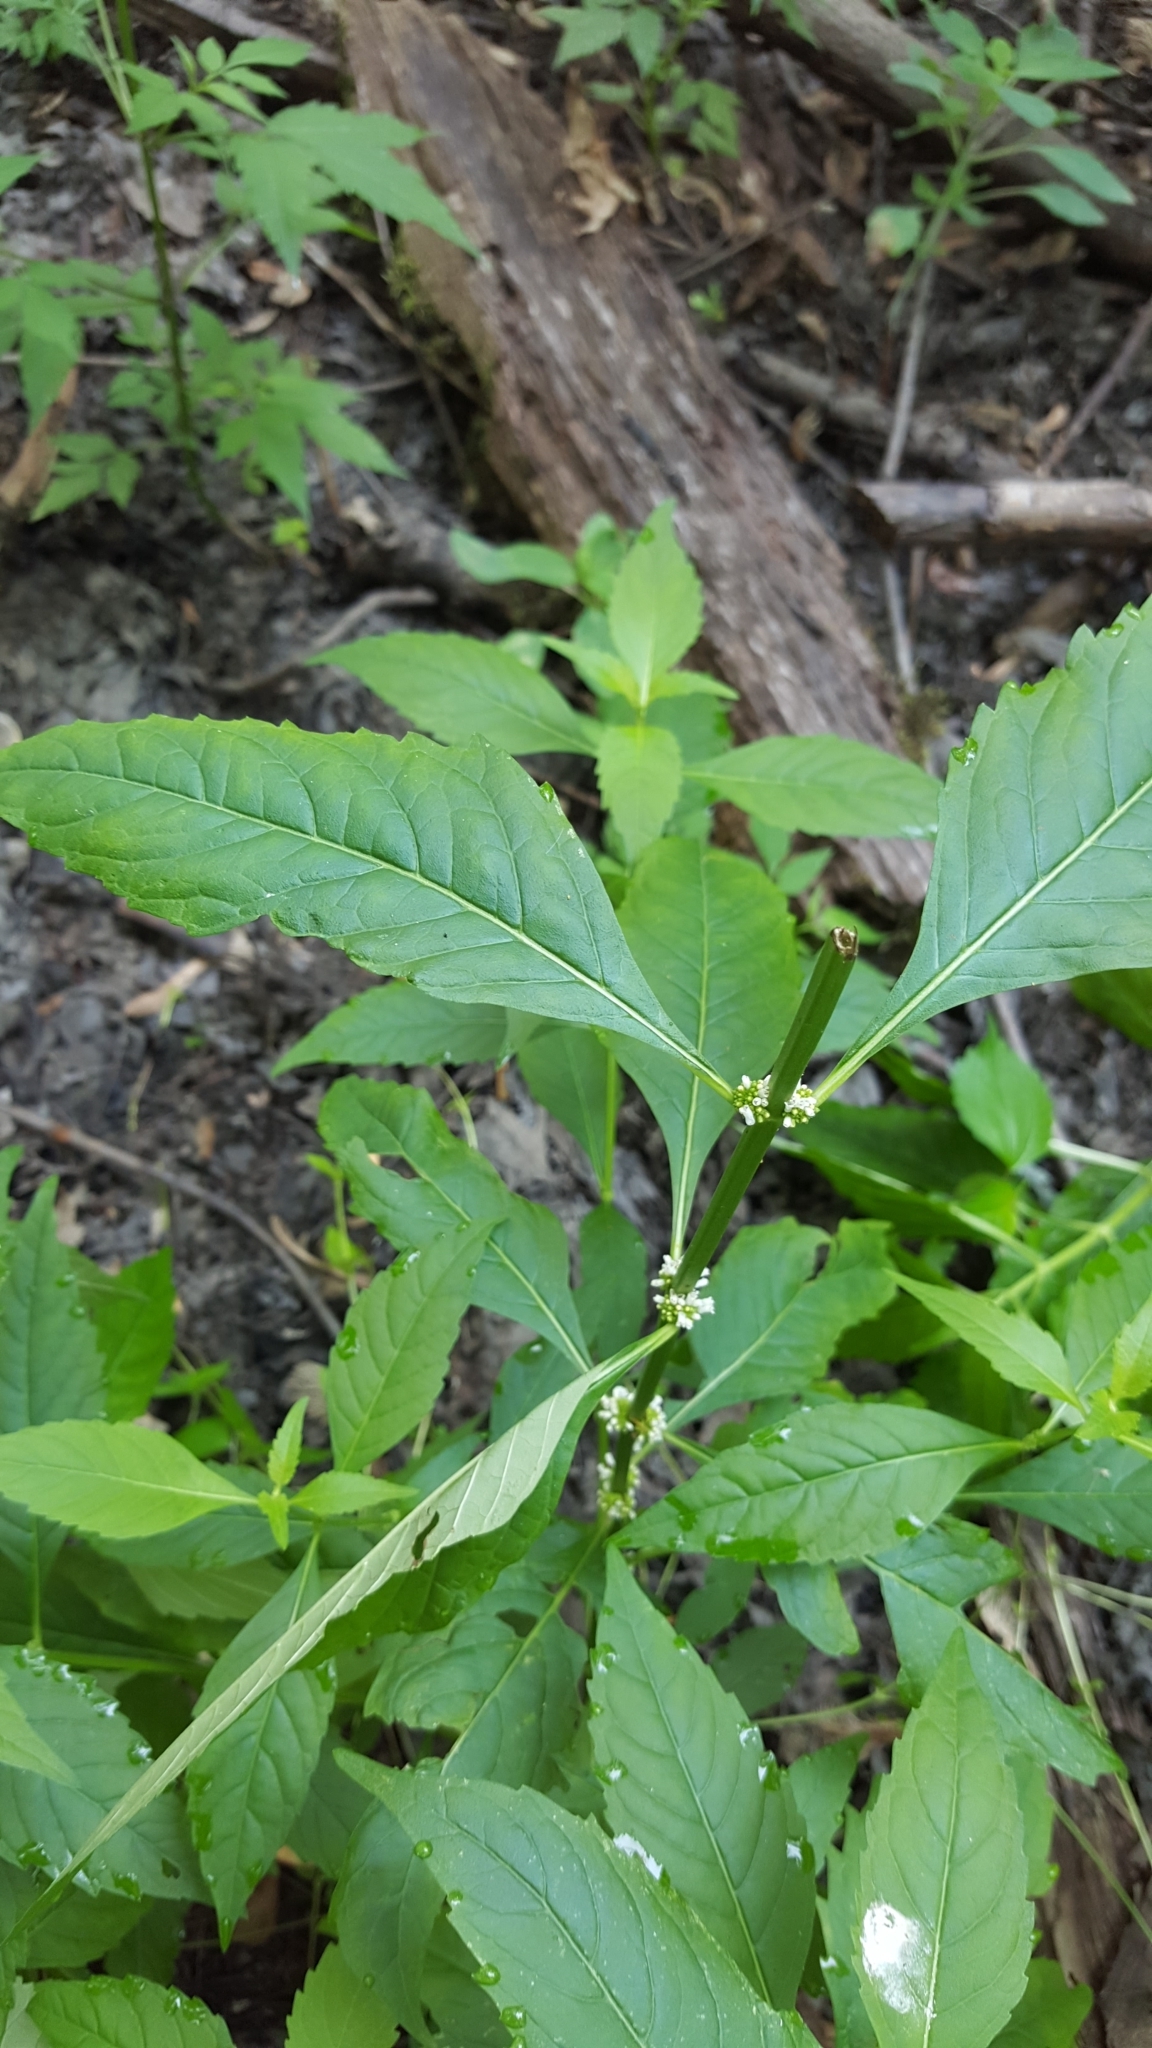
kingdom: Plantae
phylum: Tracheophyta
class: Magnoliopsida
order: Lamiales
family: Lamiaceae
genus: Lycopus
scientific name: Lycopus uniflorus
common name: Northern bugleweed
